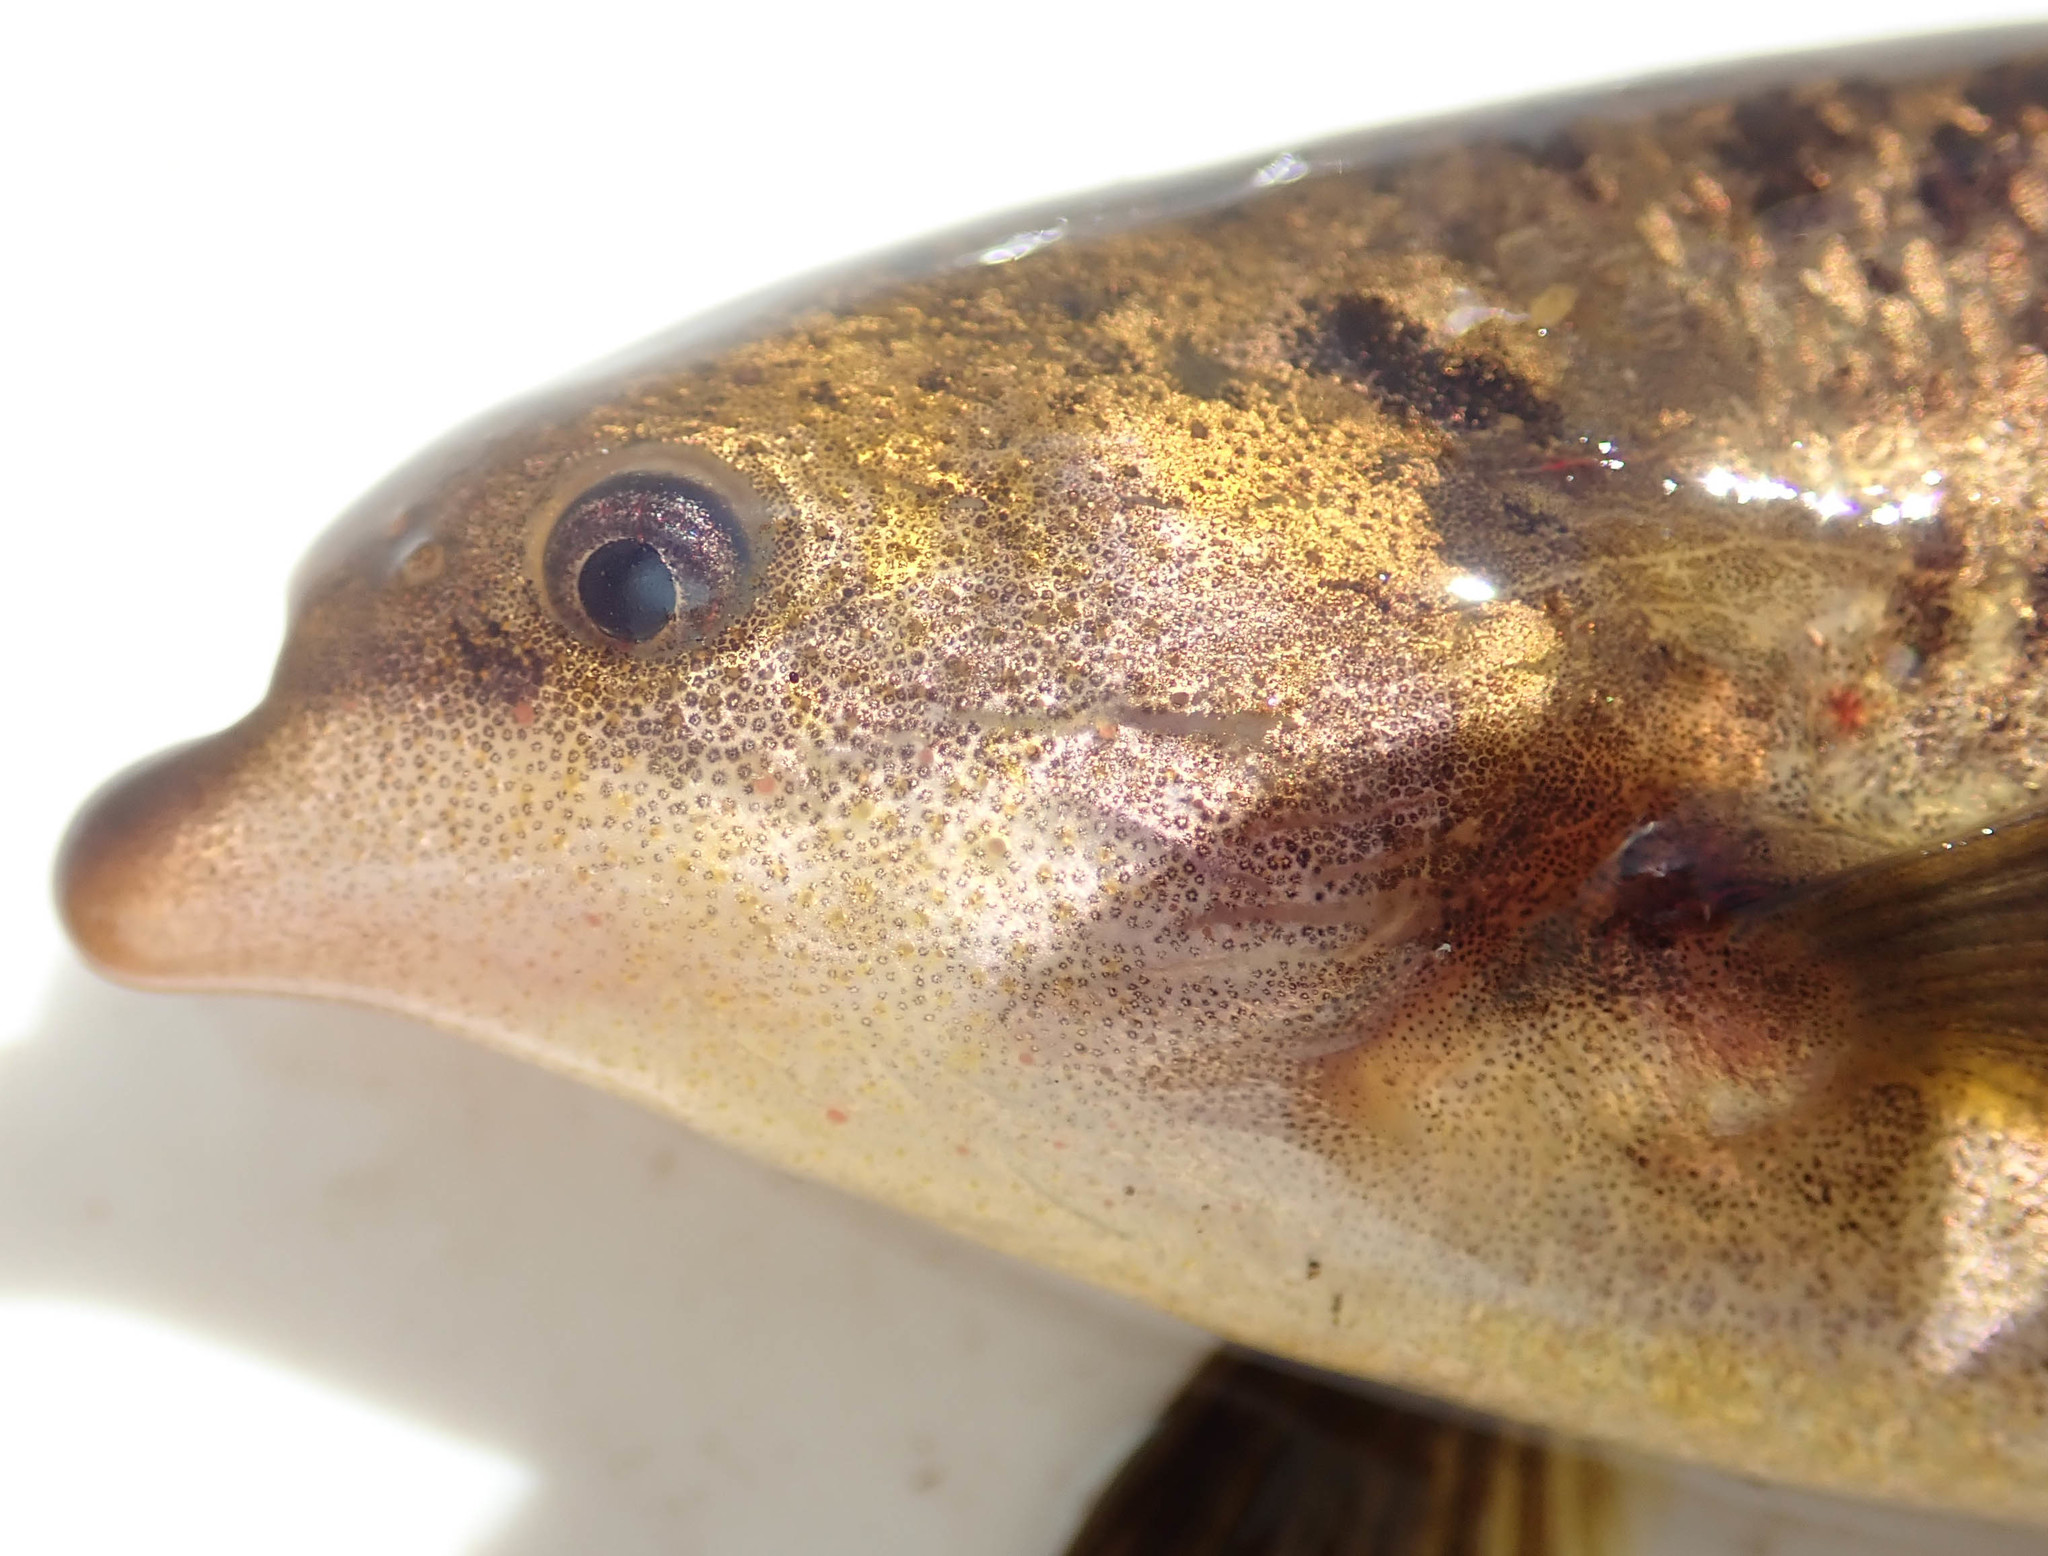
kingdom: Animalia
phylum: Chordata
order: Osteoglossiformes
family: Mormyridae
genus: Marcusenius
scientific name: Marcusenius altisambesi
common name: Bulldog
